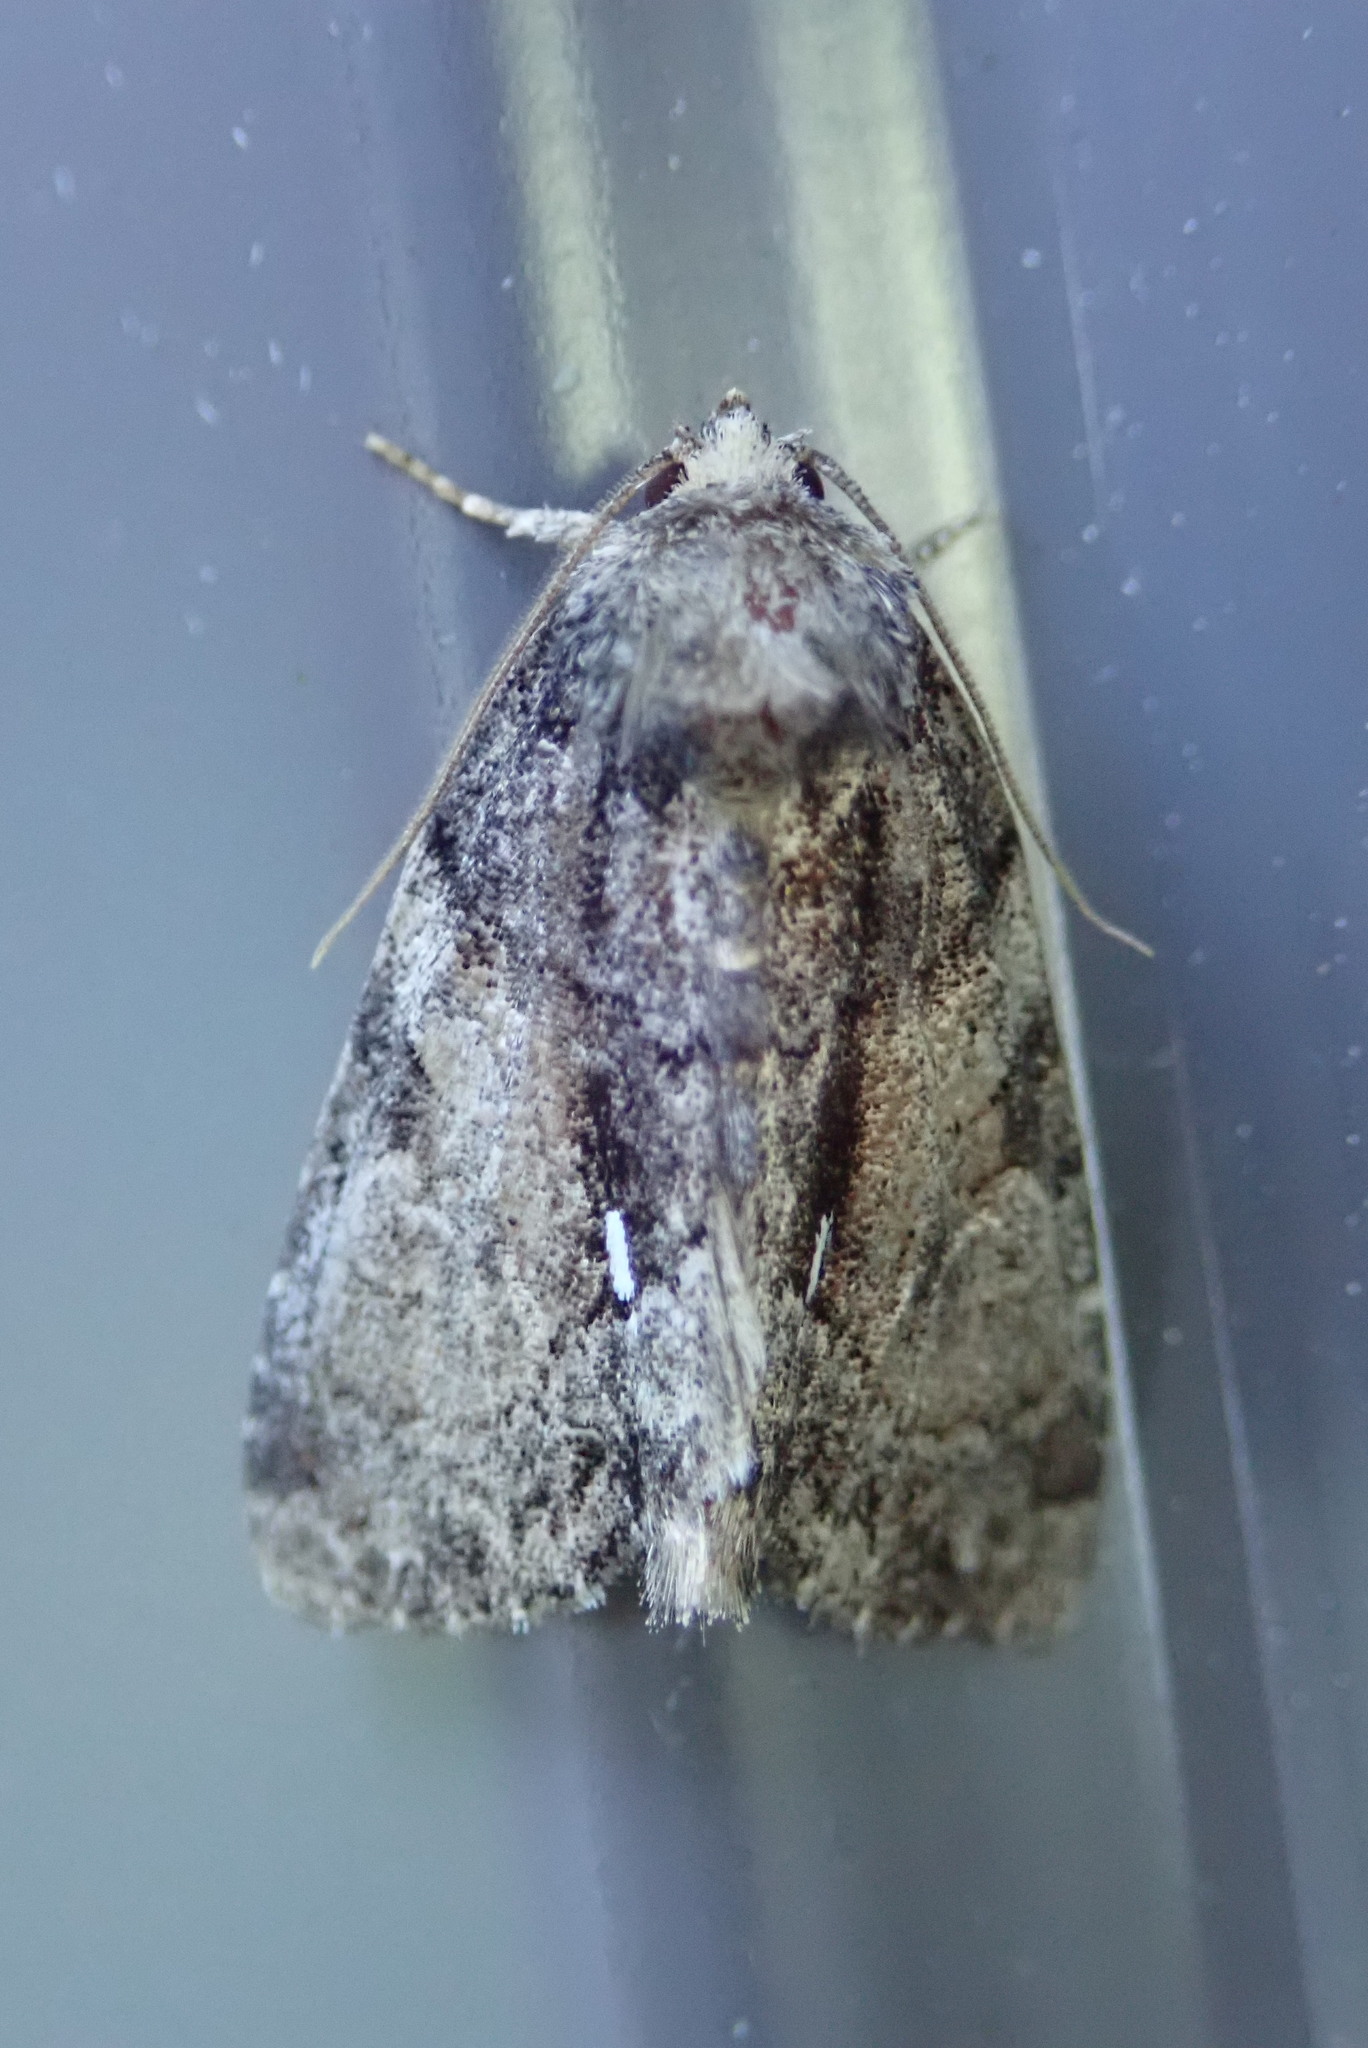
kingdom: Animalia
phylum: Arthropoda
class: Insecta
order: Lepidoptera
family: Noctuidae
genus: Chytonix
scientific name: Chytonix palliatricula
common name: Cloaked marvel
